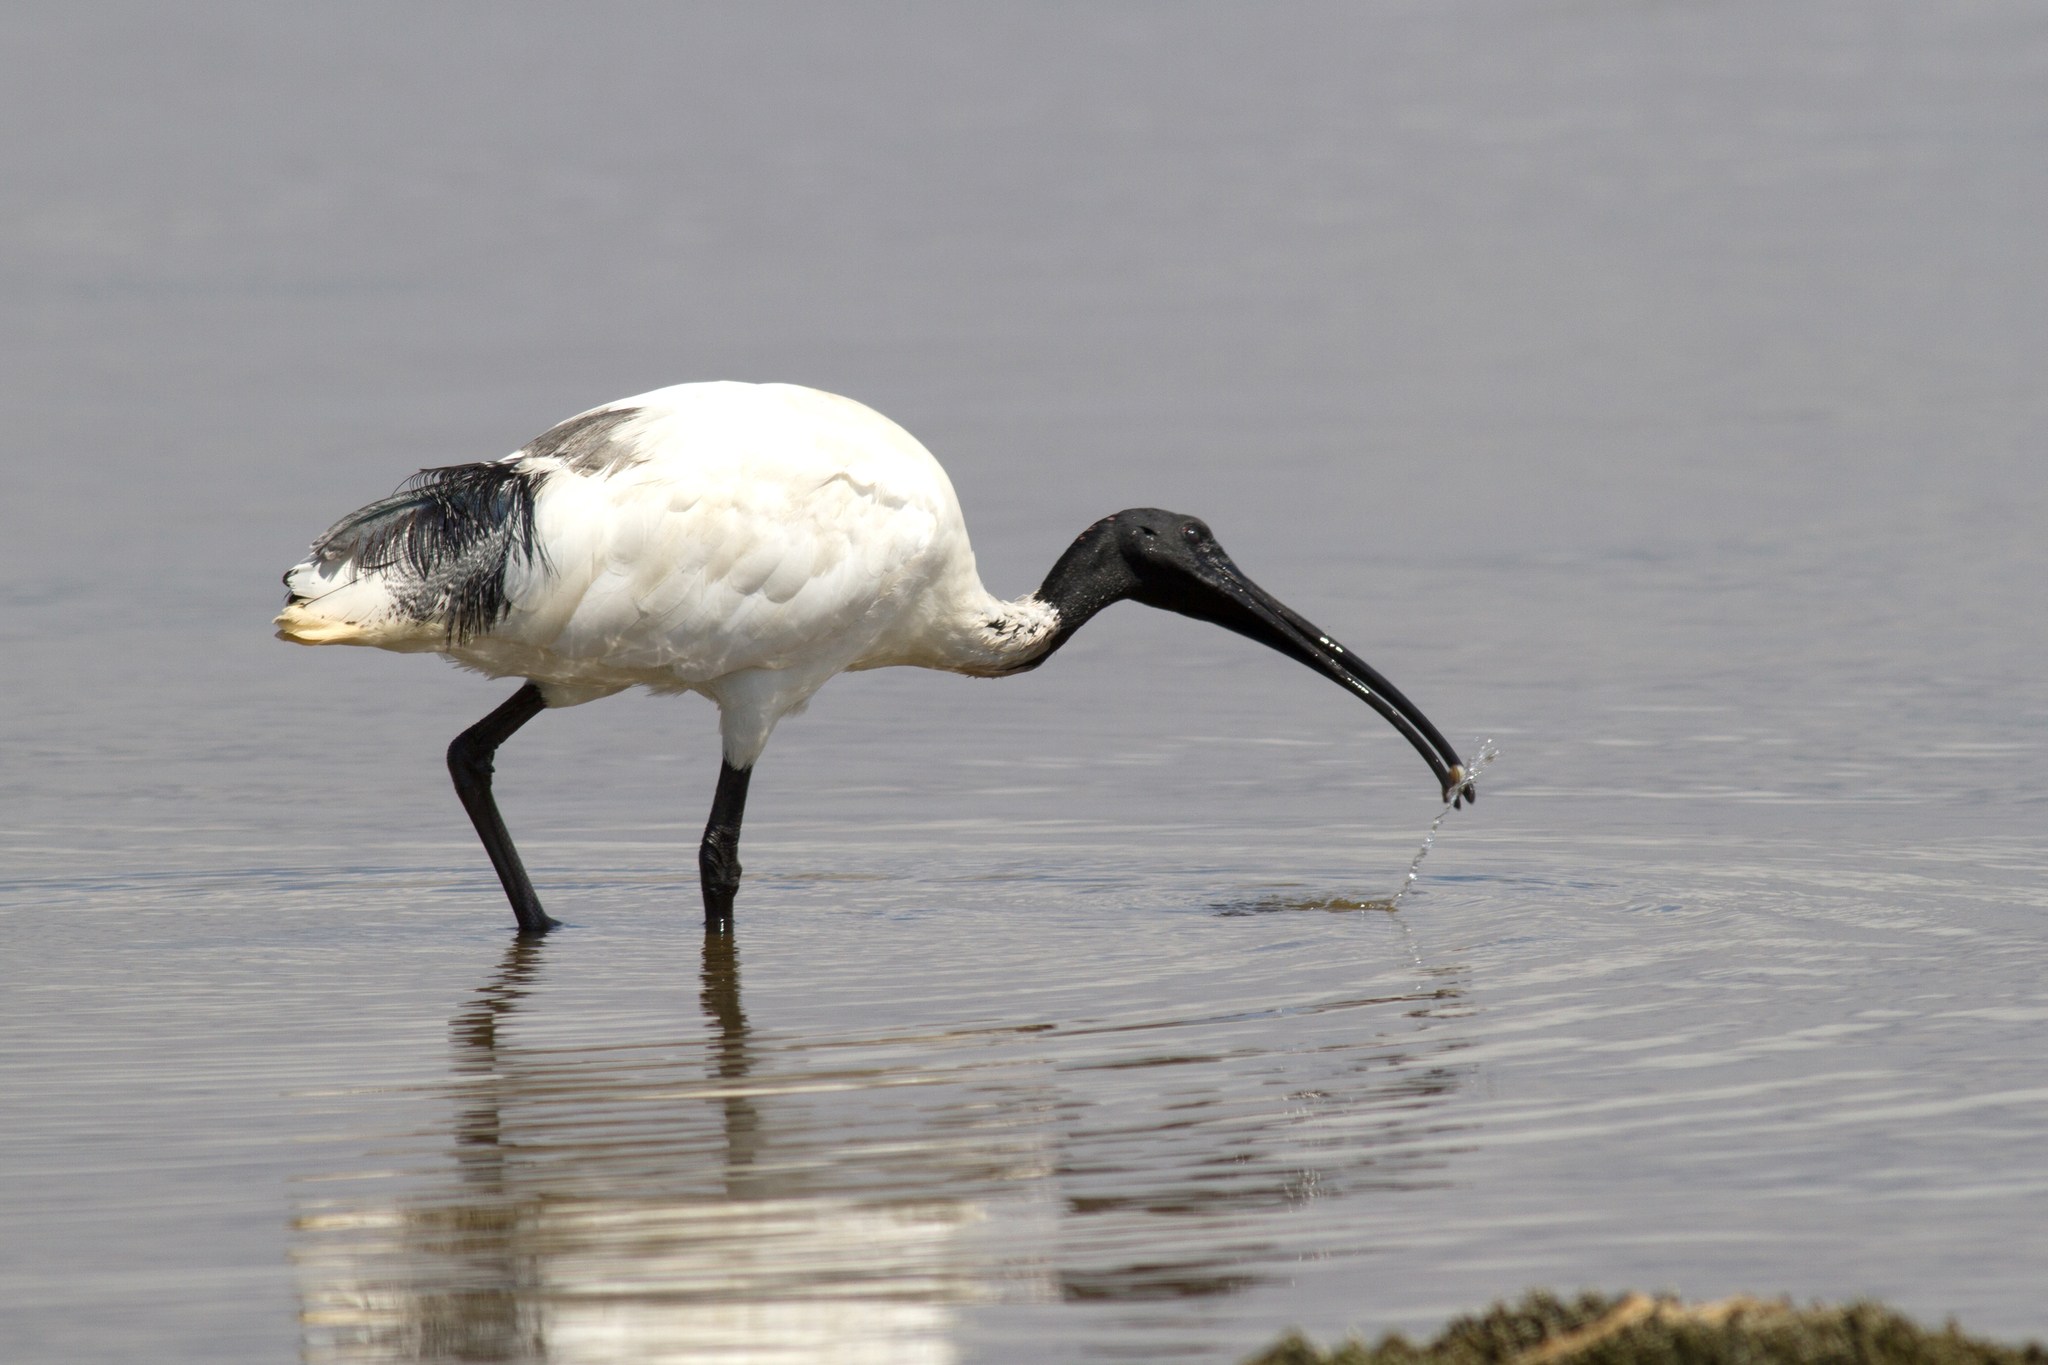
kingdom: Animalia
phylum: Chordata
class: Aves
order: Pelecaniformes
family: Threskiornithidae
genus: Threskiornis
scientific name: Threskiornis molucca
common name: Australian white ibis
